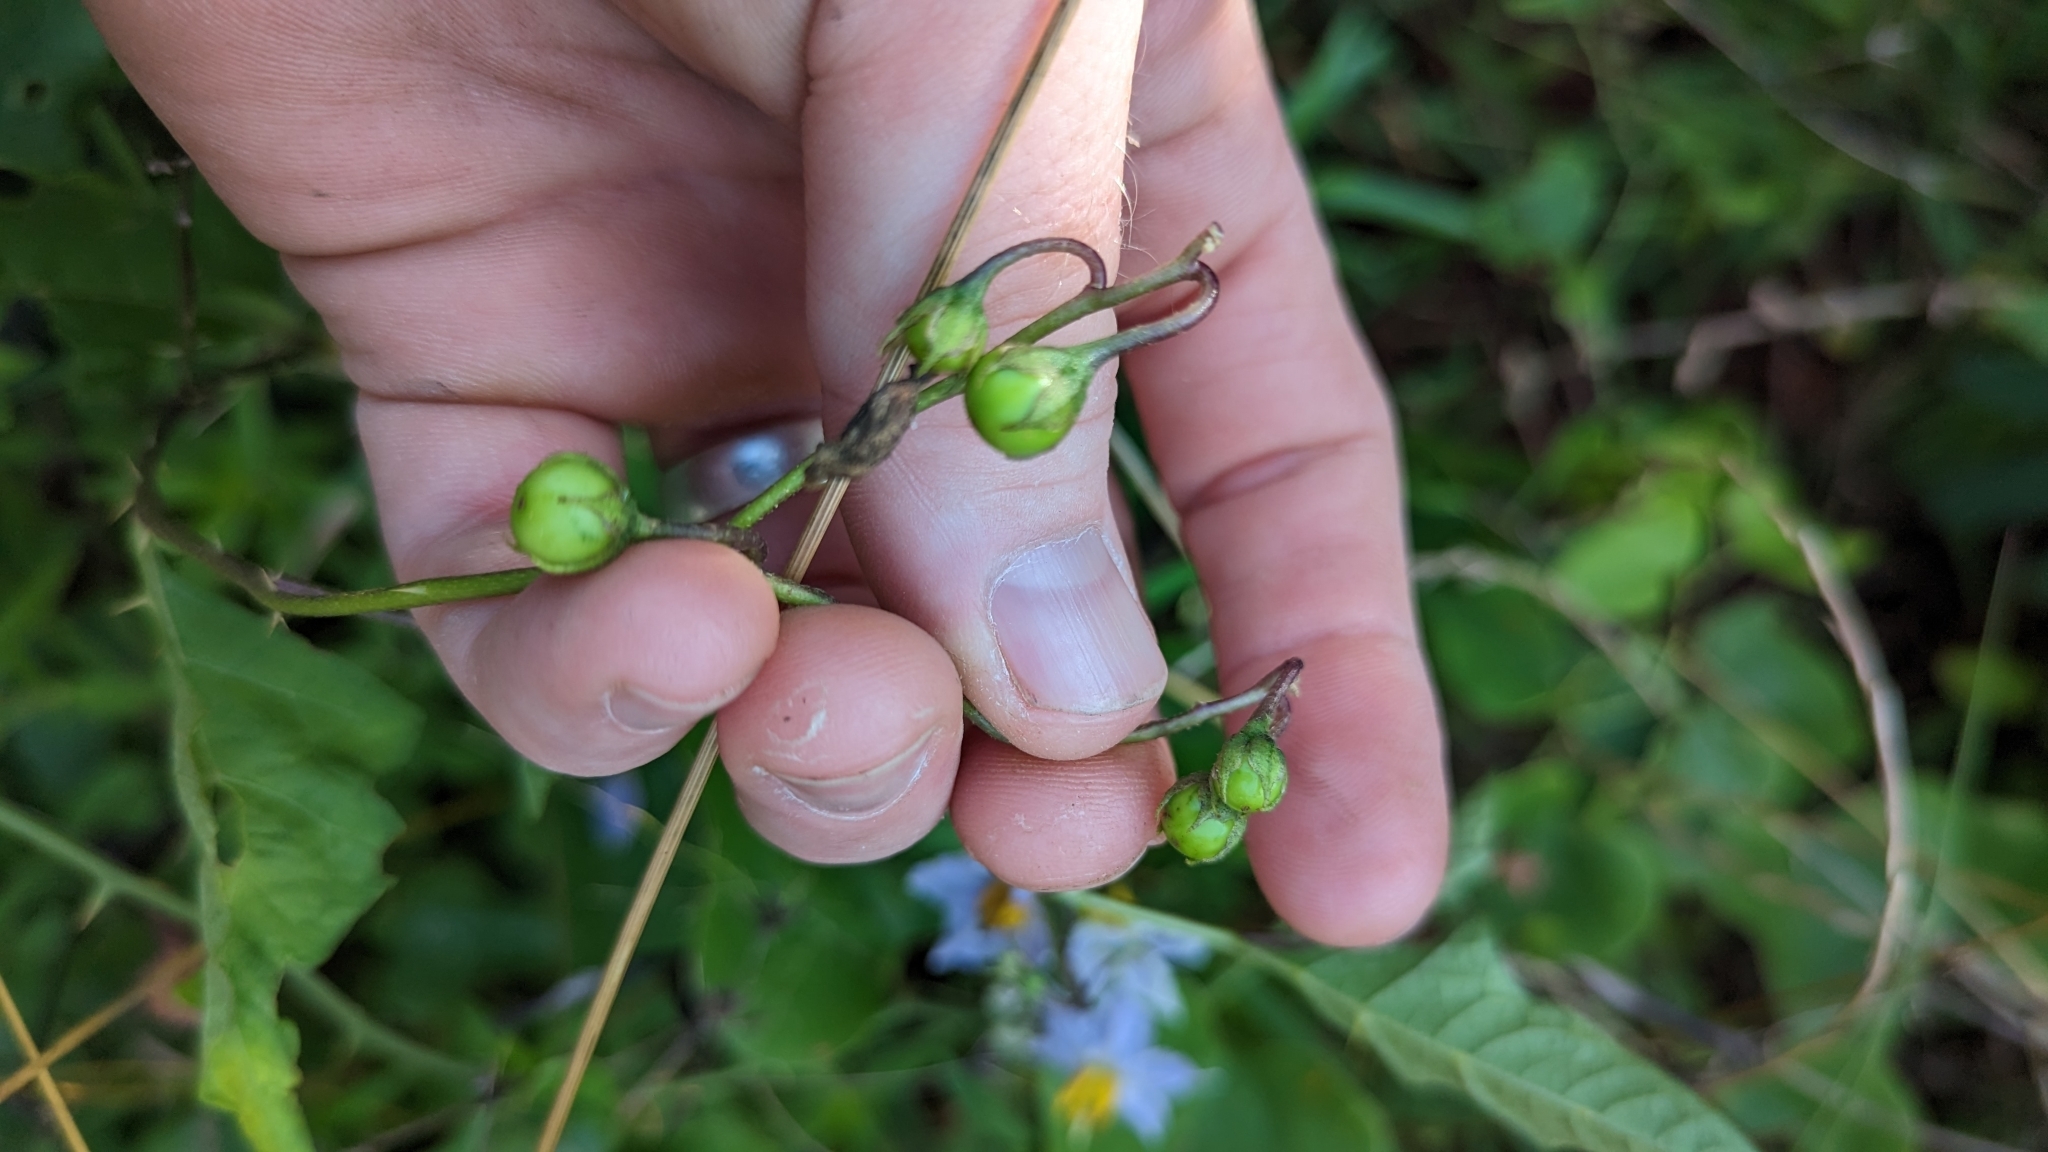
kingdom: Plantae
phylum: Tracheophyta
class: Magnoliopsida
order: Solanales
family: Solanaceae
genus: Solanum
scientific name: Solanum carolinense
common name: Horse-nettle
